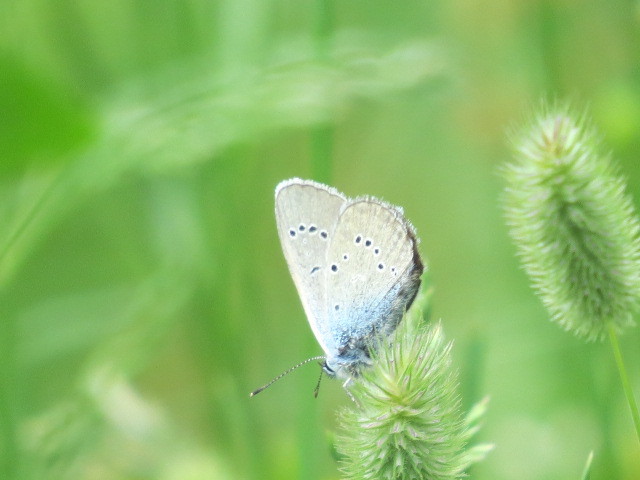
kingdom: Animalia
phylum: Arthropoda
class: Insecta
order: Lepidoptera
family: Lycaenidae
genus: Cyaniris
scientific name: Cyaniris semiargus
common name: Mazarine blue
